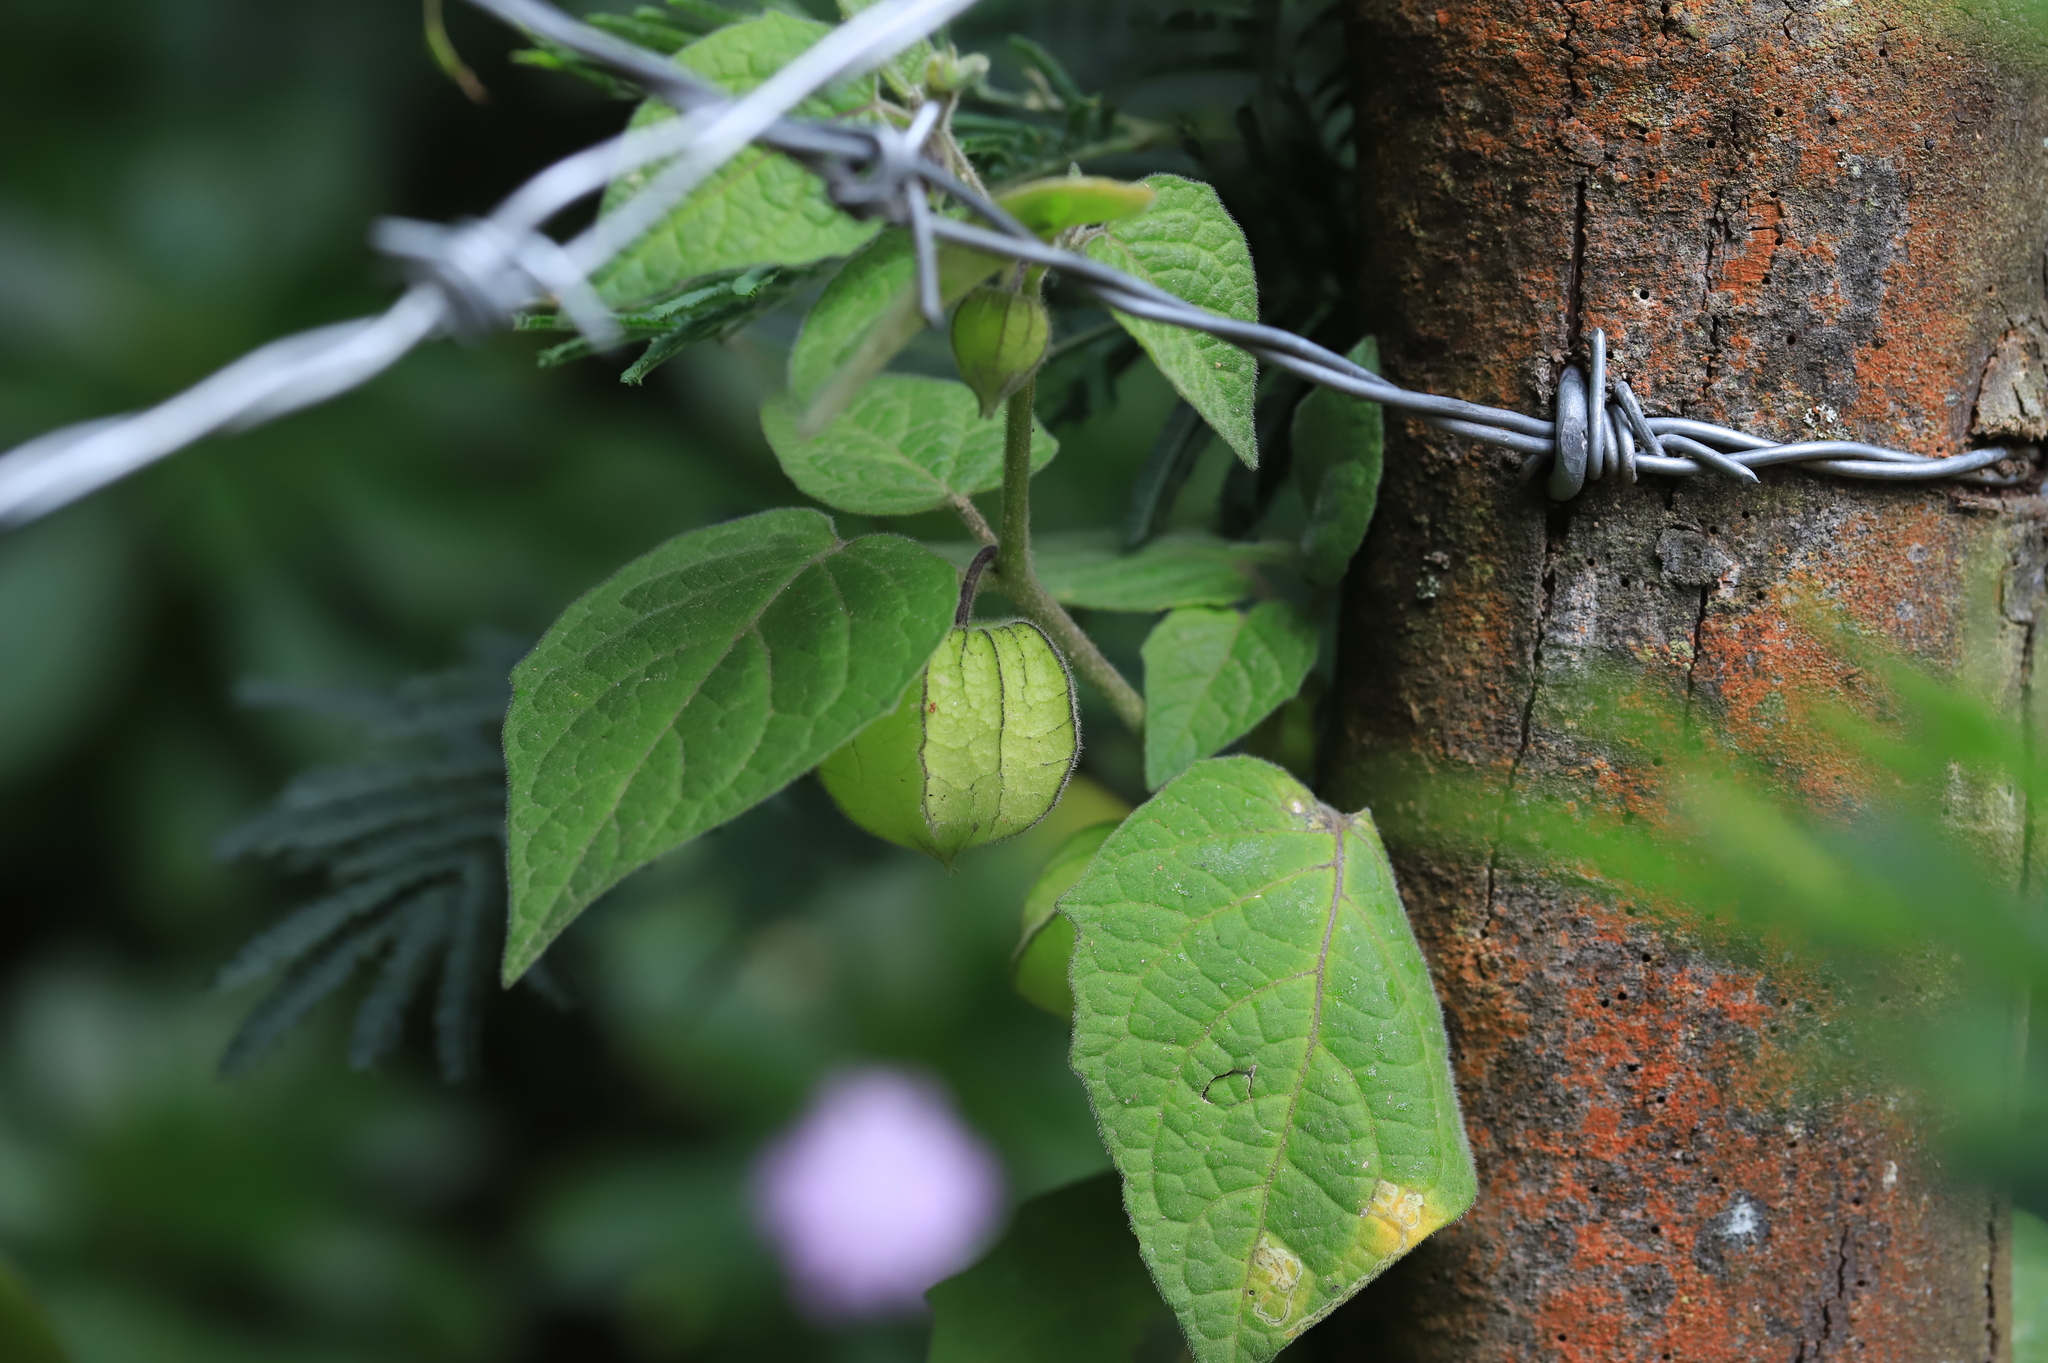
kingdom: Plantae
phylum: Tracheophyta
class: Magnoliopsida
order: Solanales
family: Solanaceae
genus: Physalis
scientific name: Physalis peruviana
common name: Cape-gooseberry
